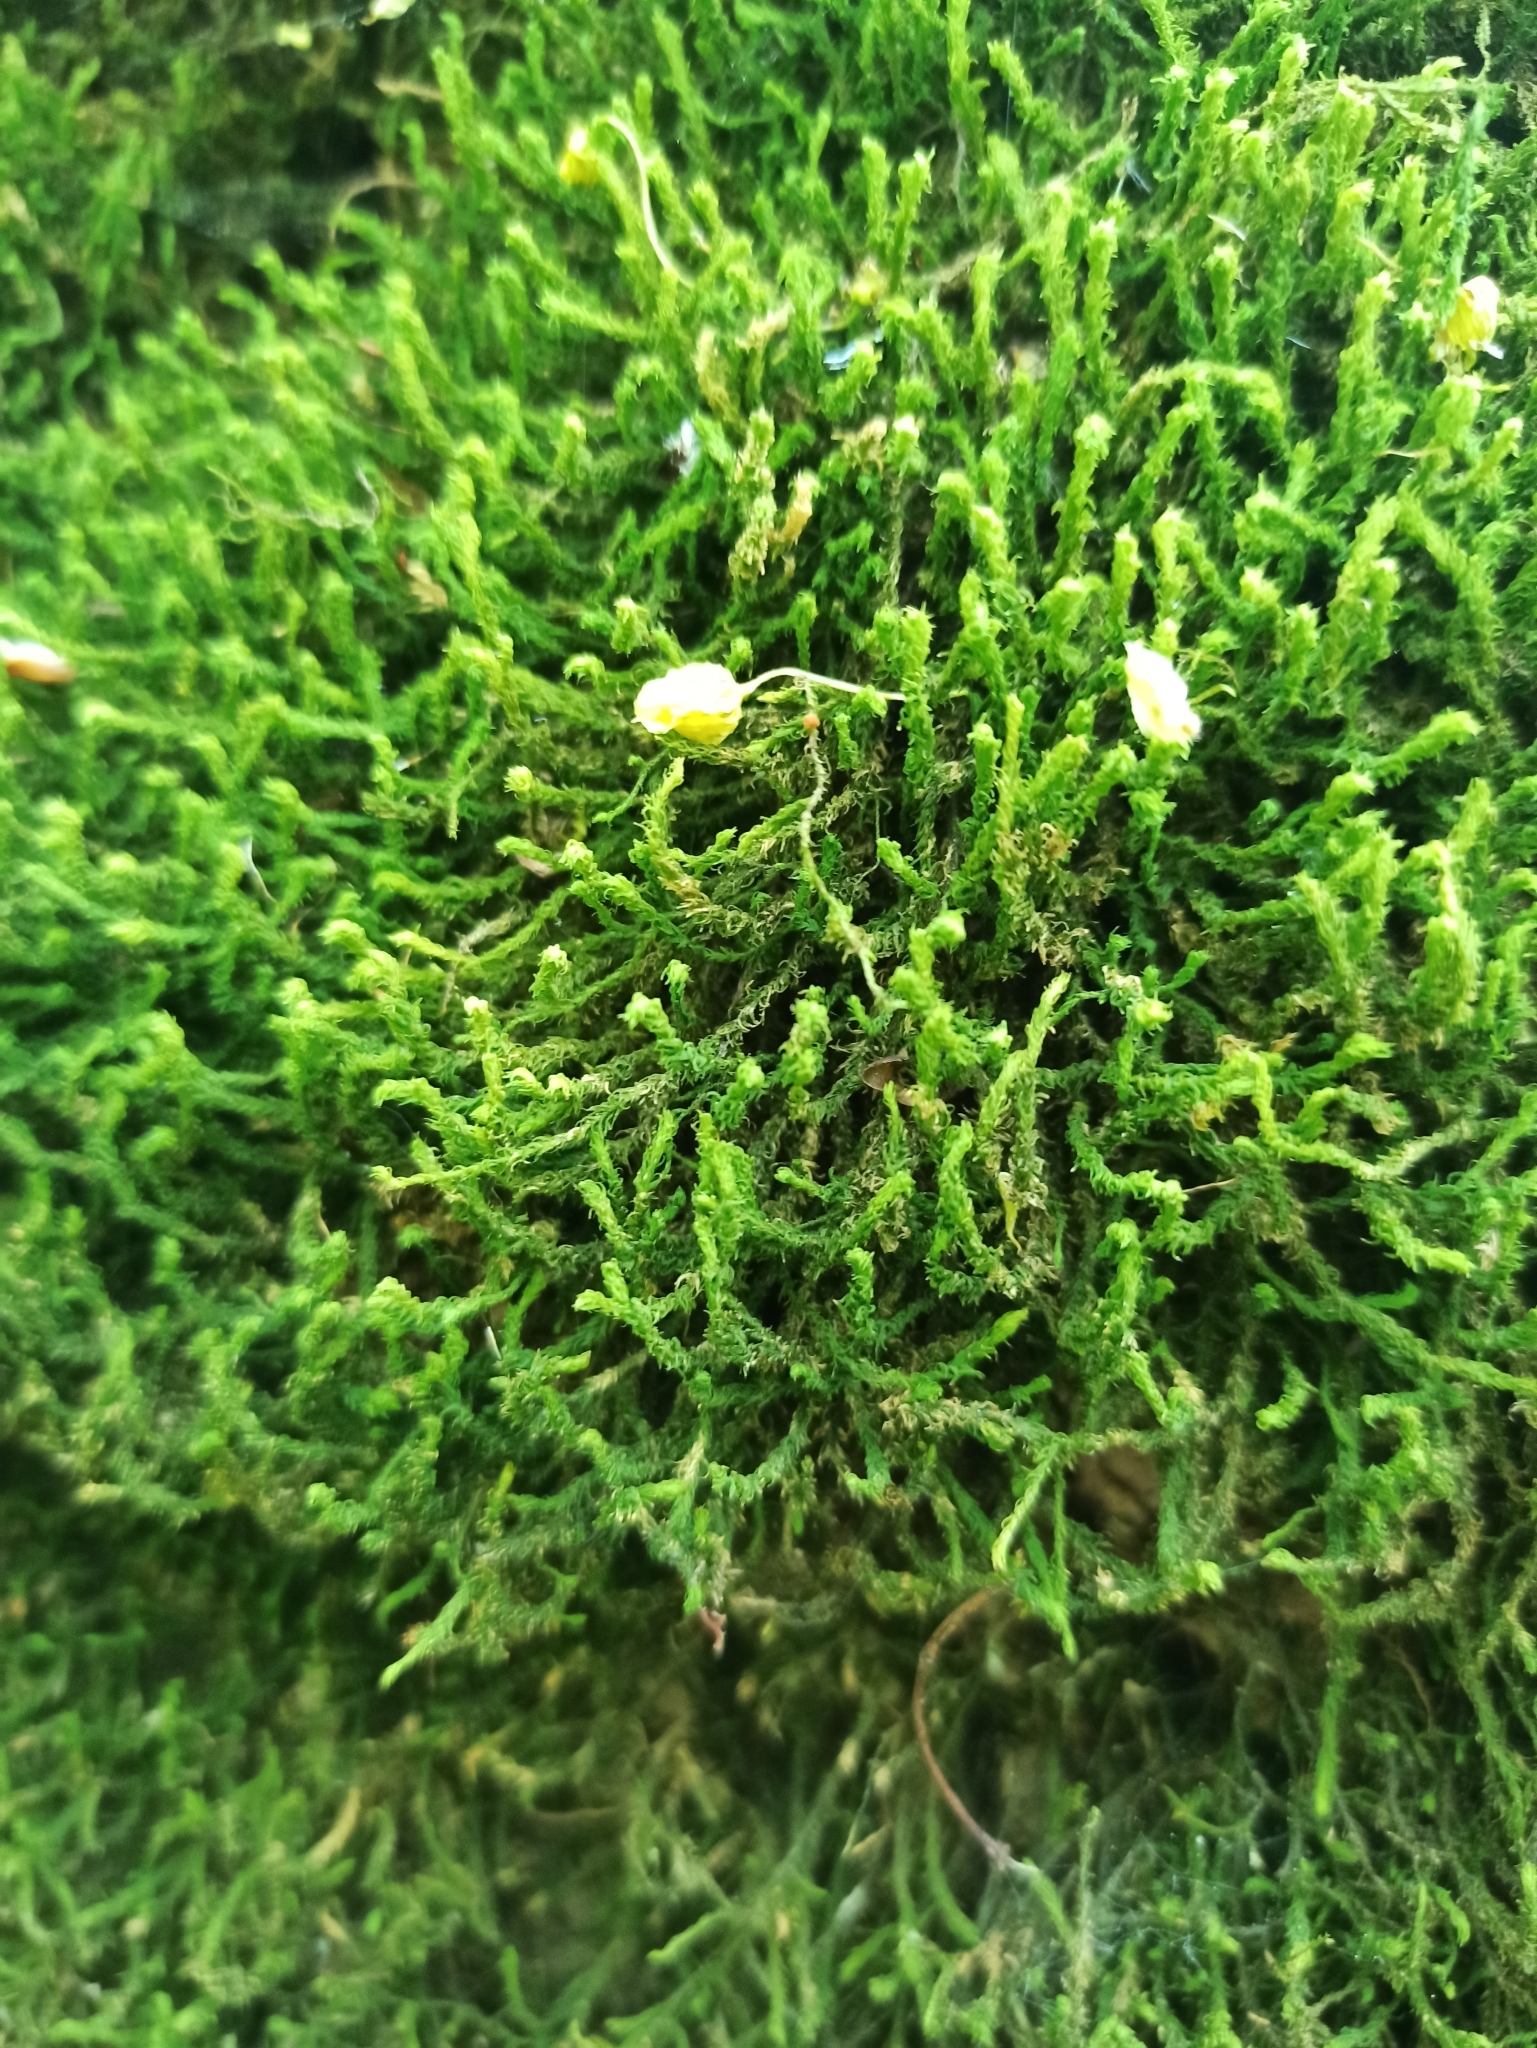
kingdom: Plantae
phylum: Bryophyta
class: Bryopsida
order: Hypnales
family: Anomodontaceae
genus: Anomodon
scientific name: Anomodon viticulosus
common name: Tall anomodon
